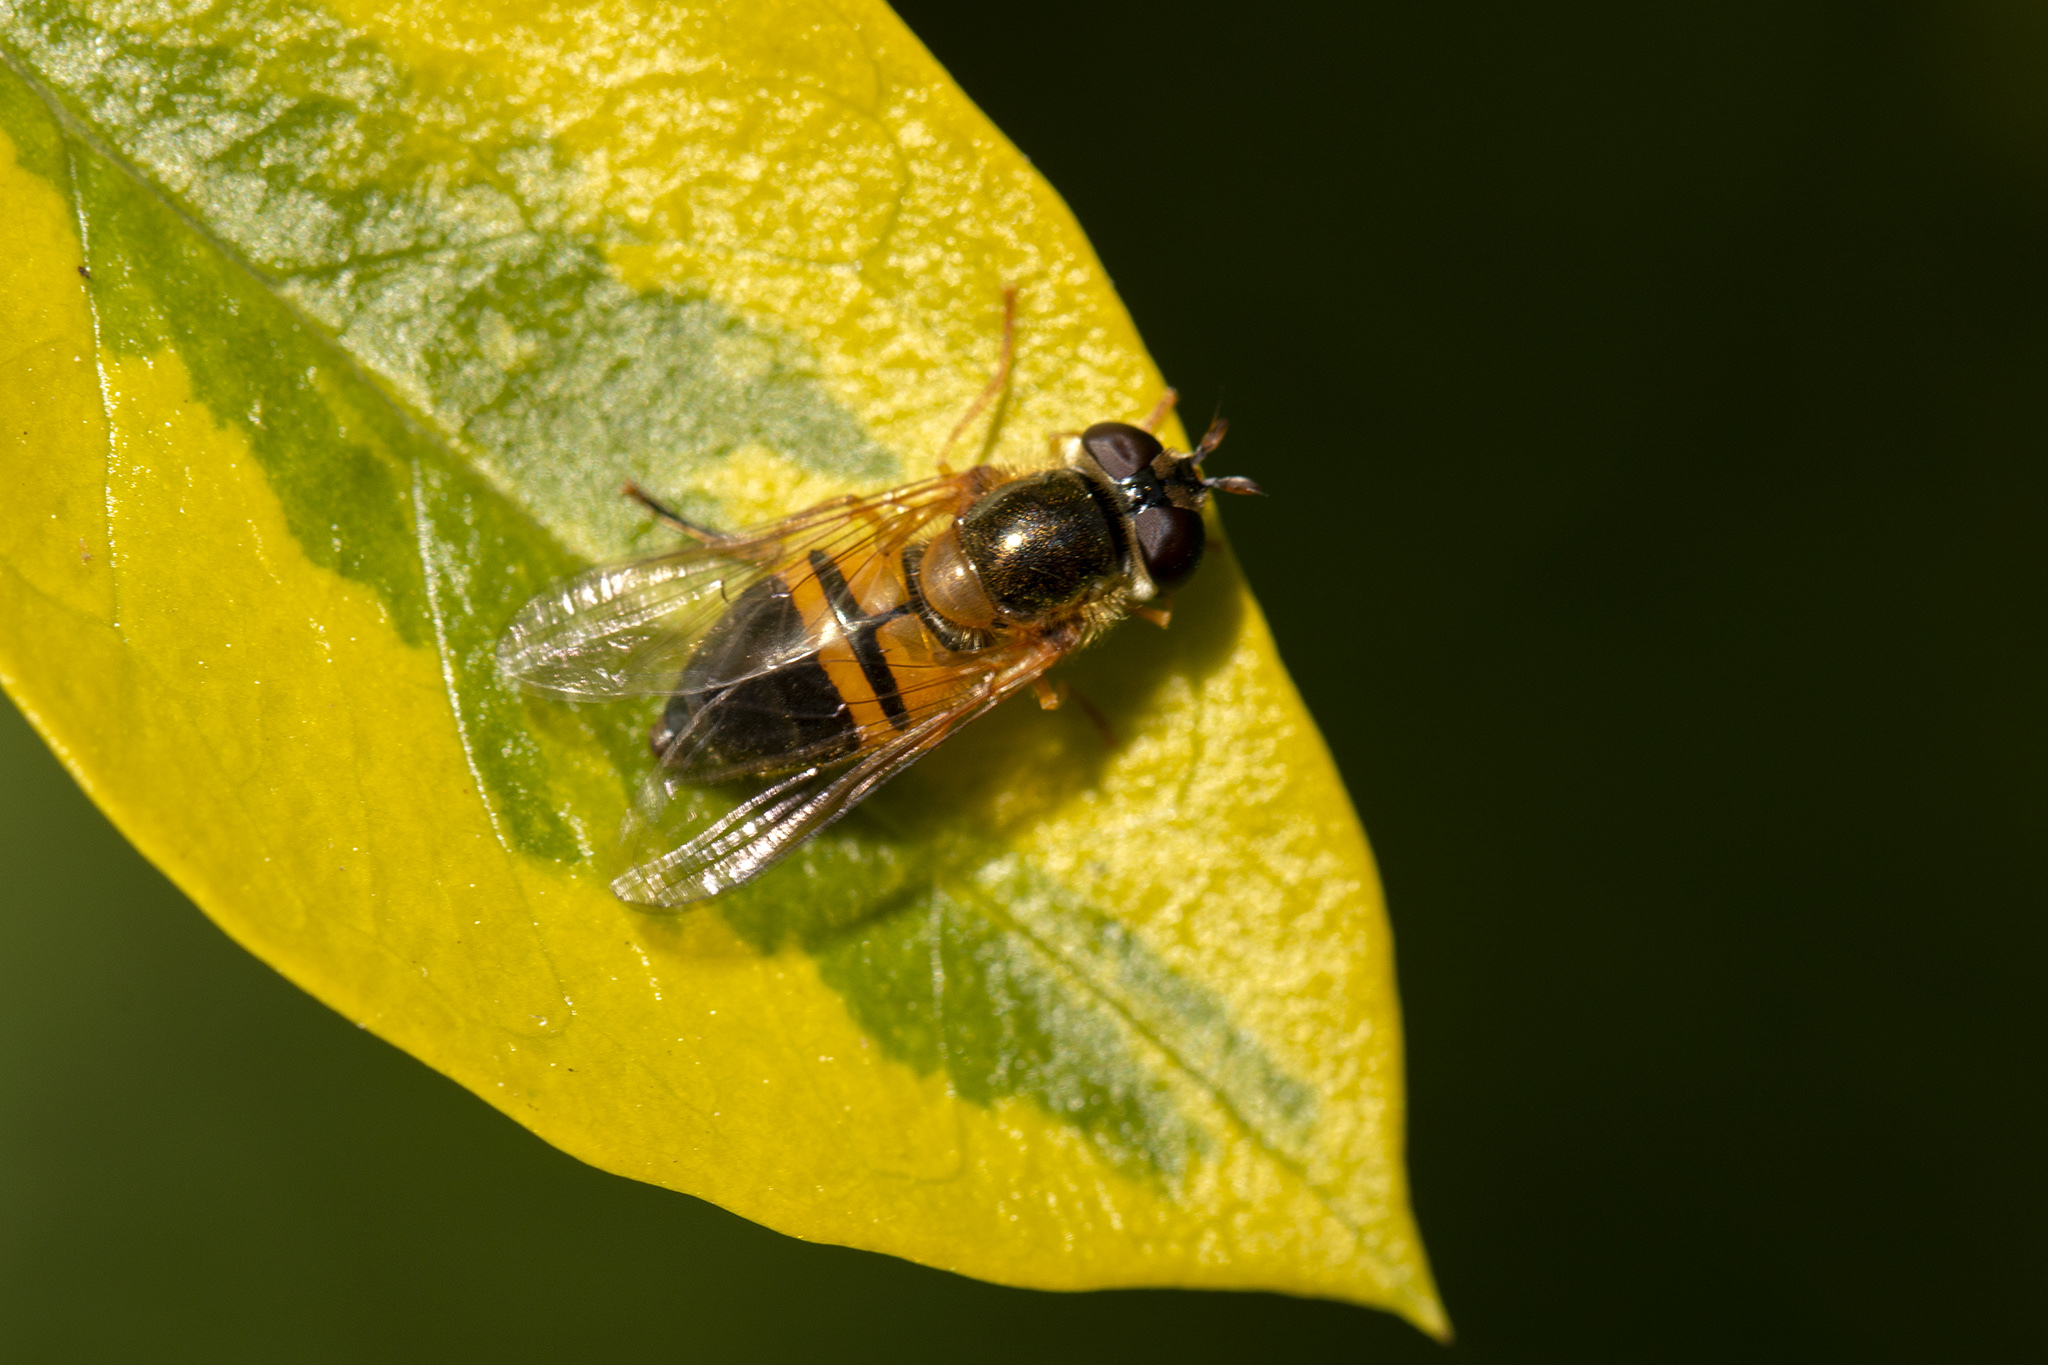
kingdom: Animalia
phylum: Arthropoda
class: Insecta
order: Diptera
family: Syrphidae
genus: Epistrophe
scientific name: Epistrophe eligans
